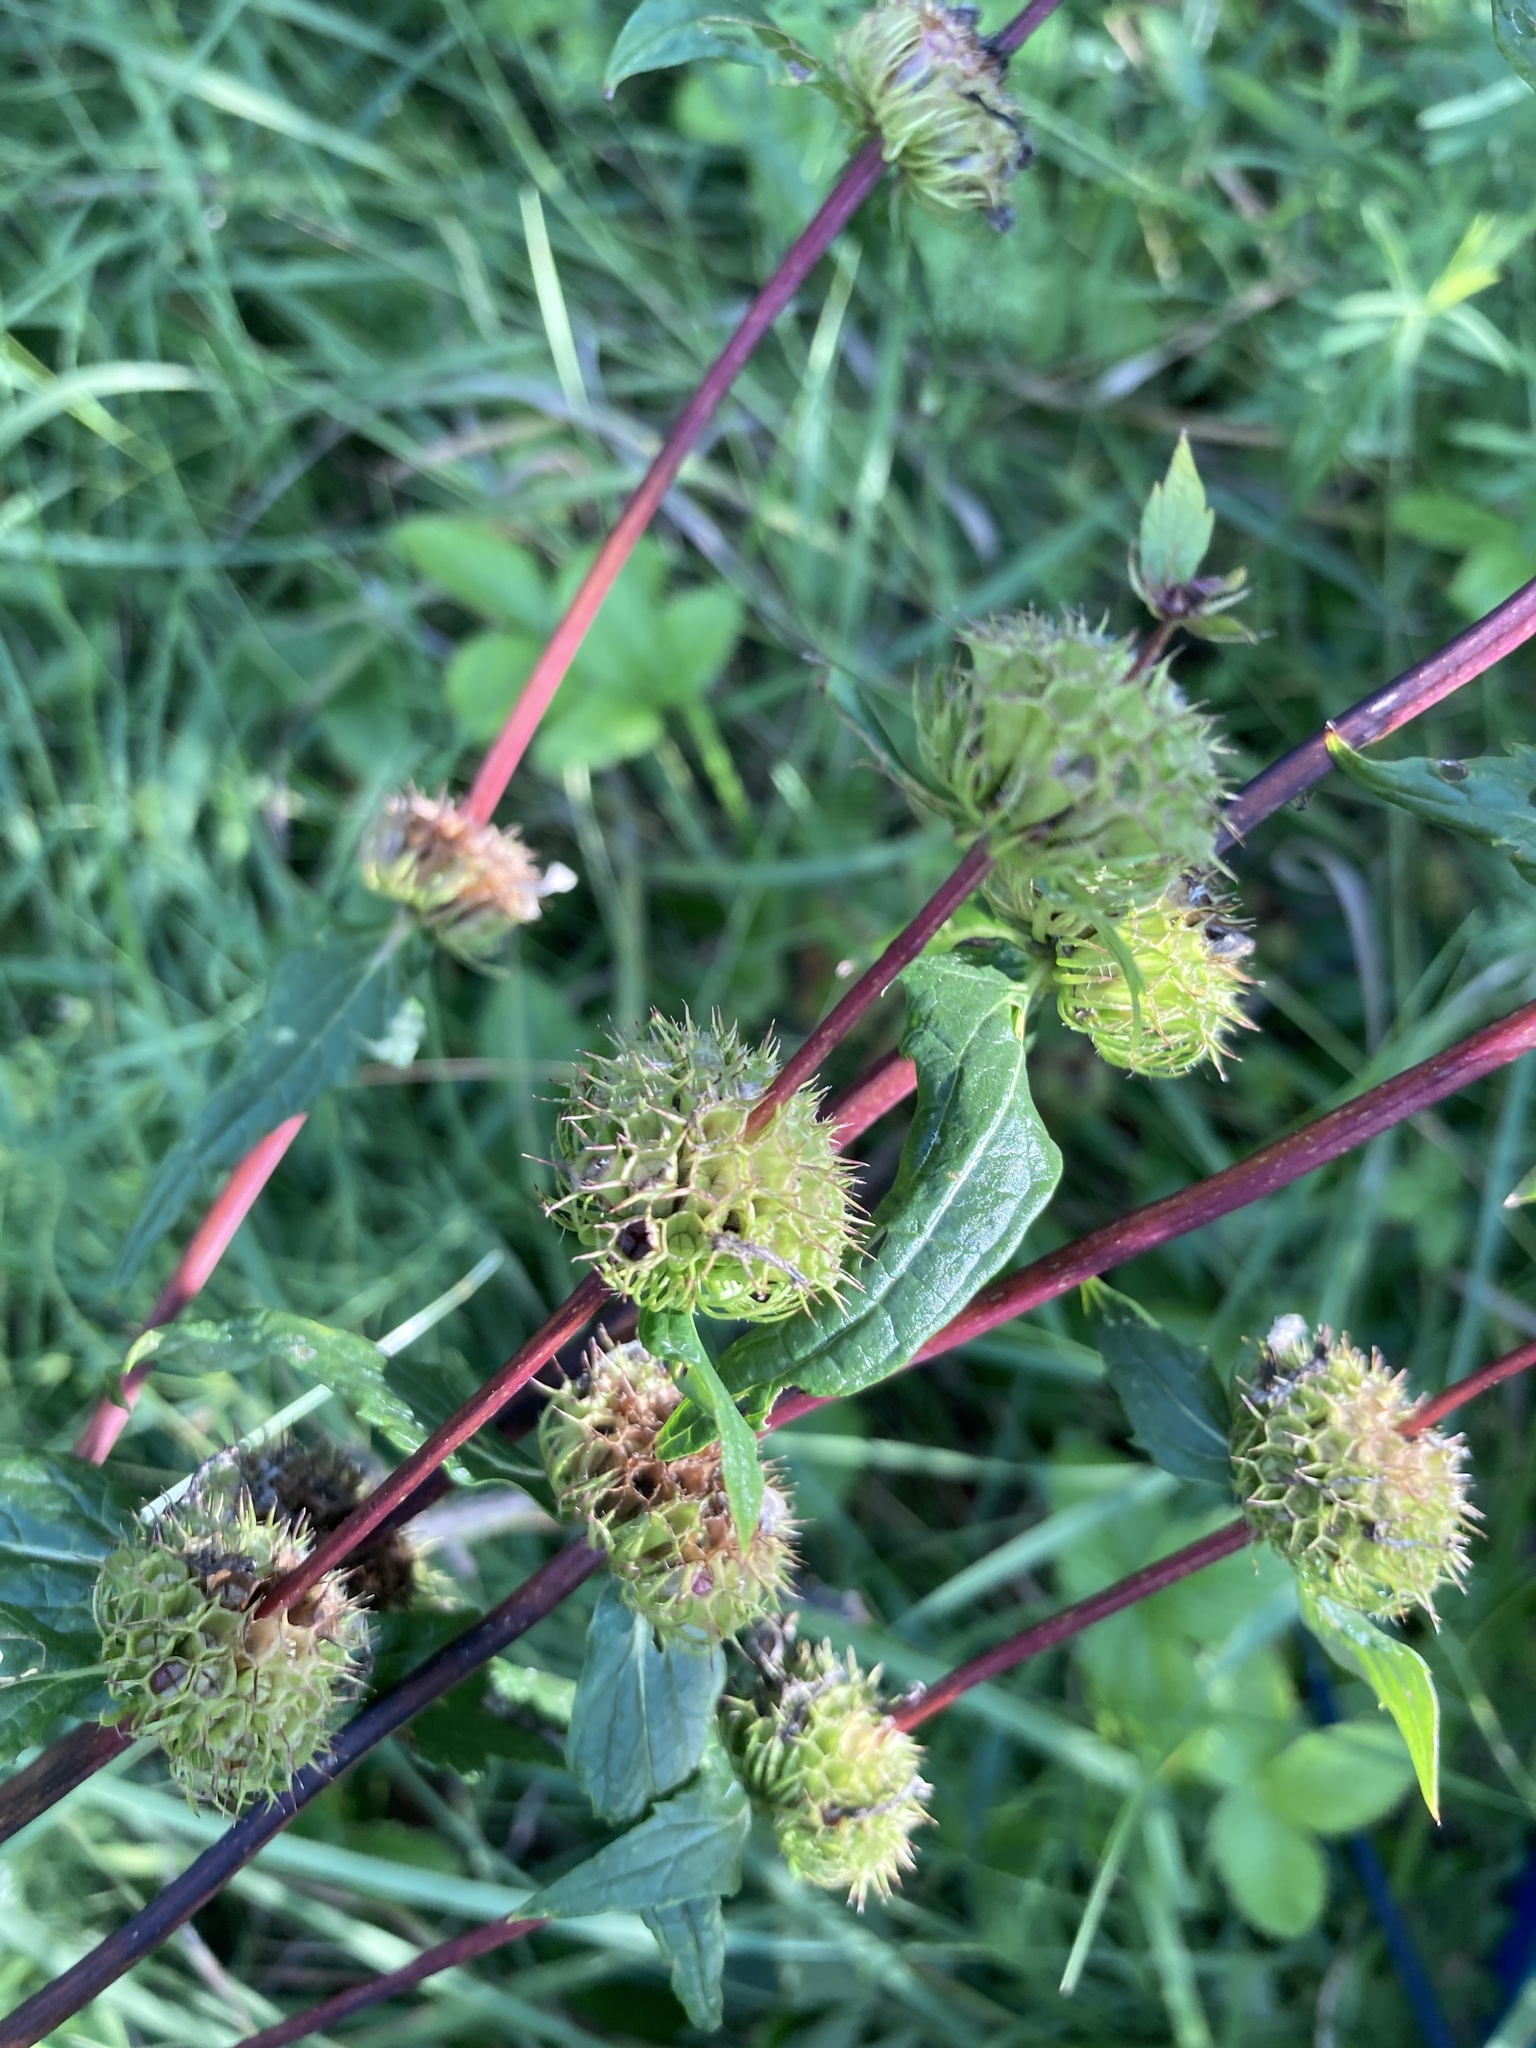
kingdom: Plantae
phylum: Tracheophyta
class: Magnoliopsida
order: Lamiales
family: Lamiaceae
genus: Phlomoides
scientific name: Phlomoides tuberosa
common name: Tuberous jerusalem sage
